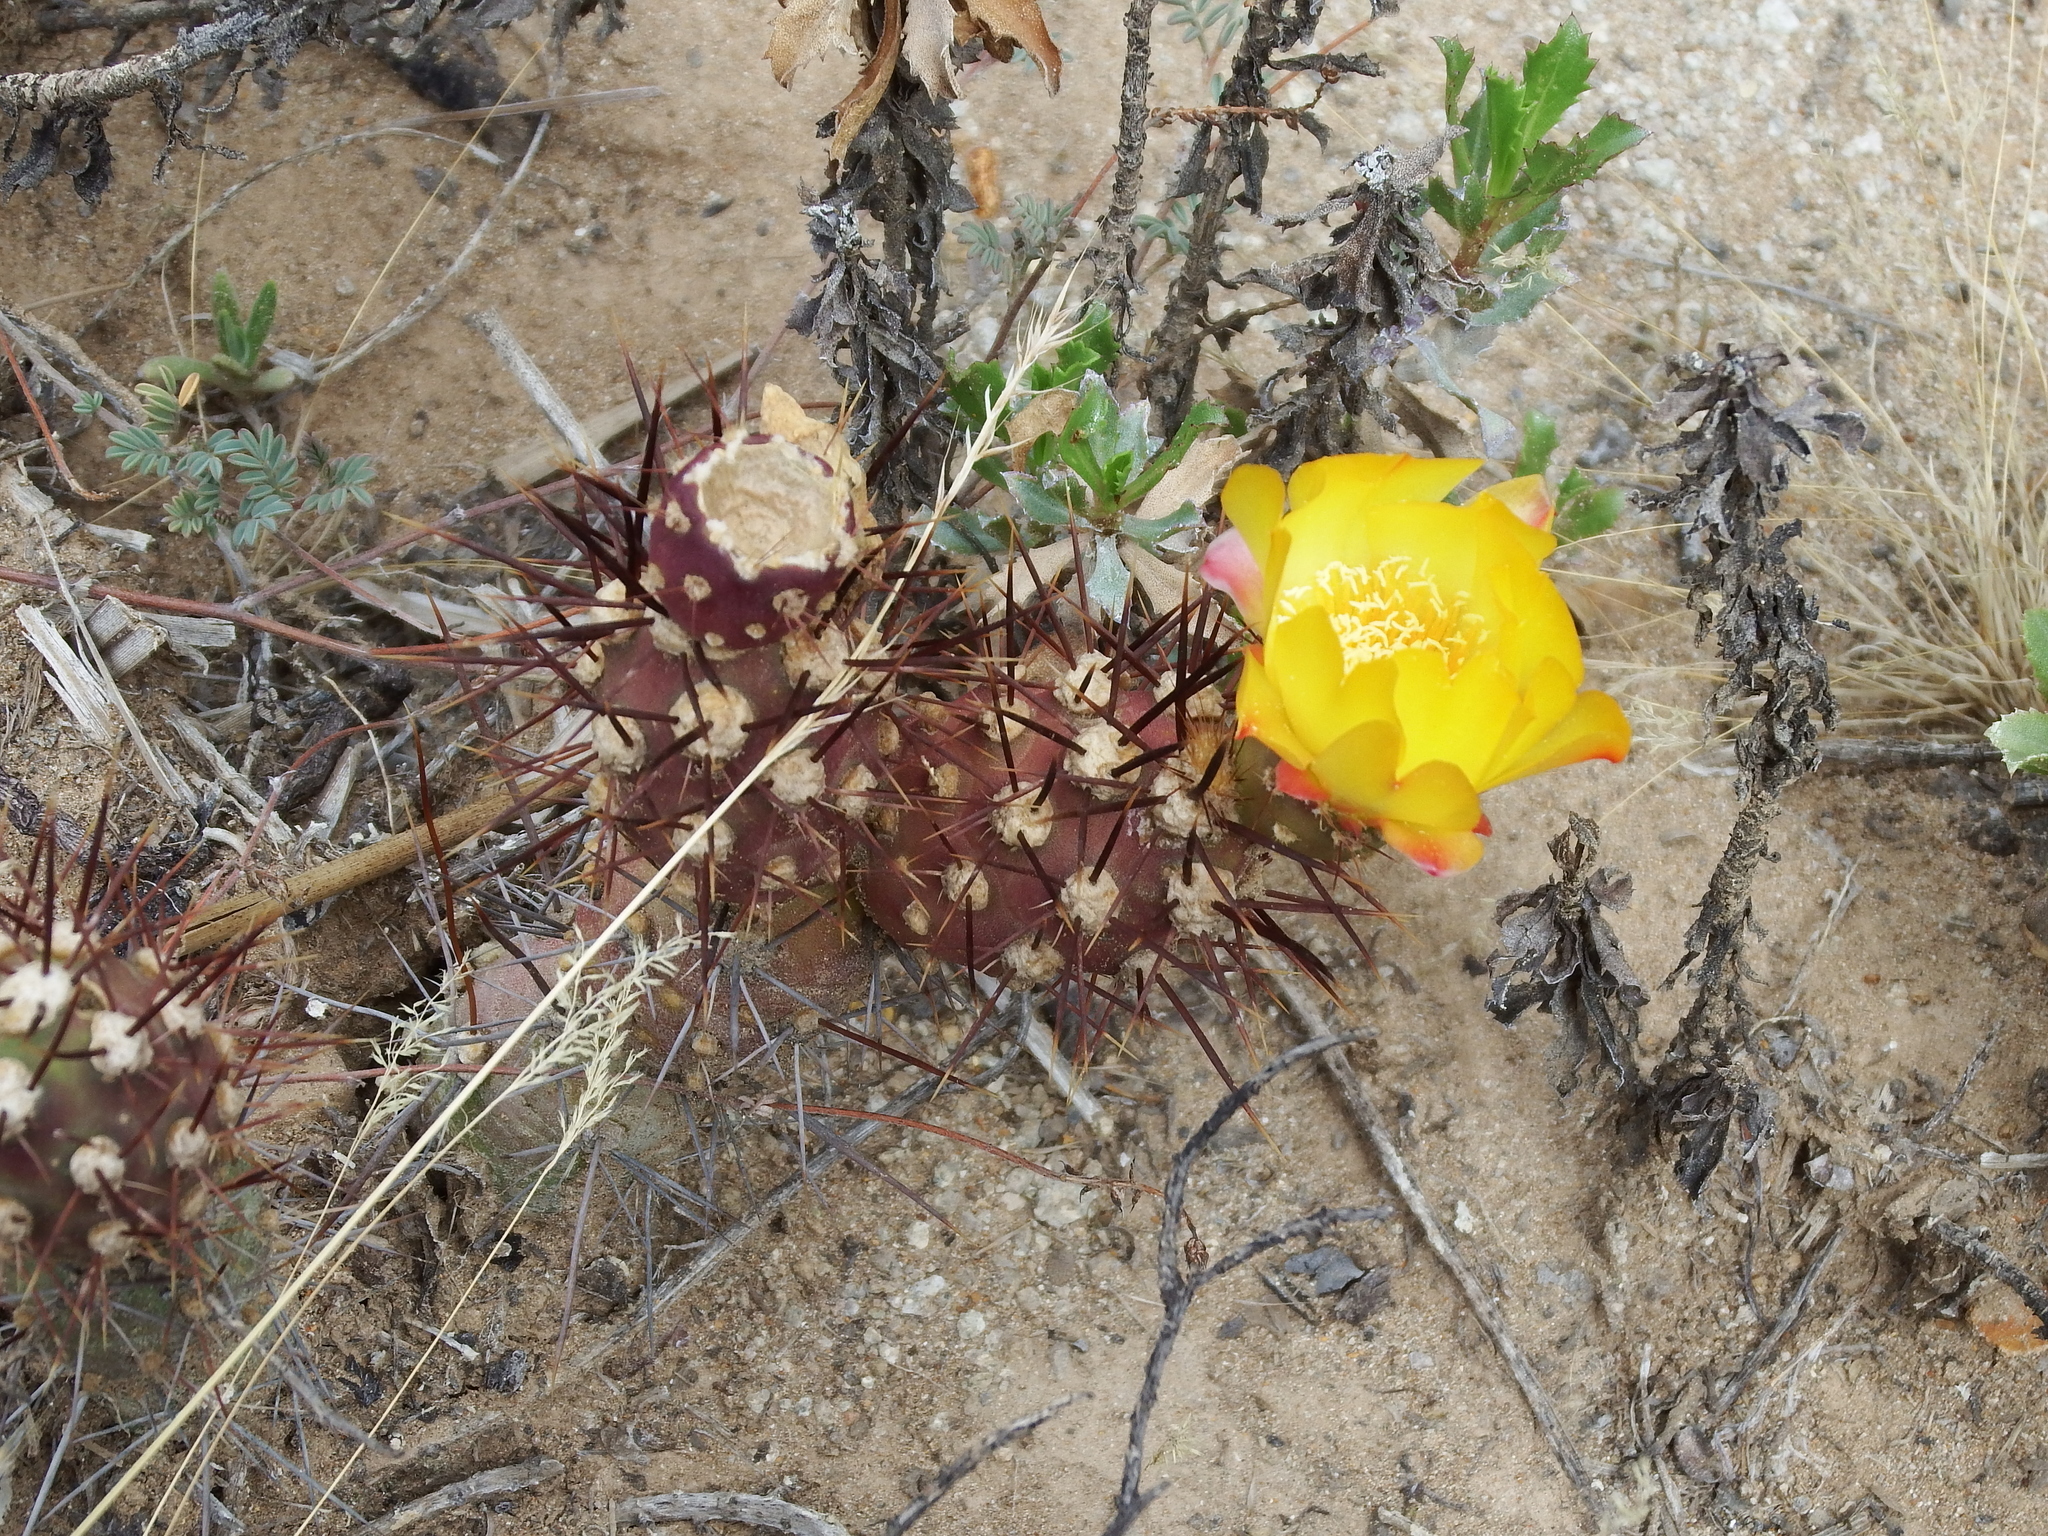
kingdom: Plantae
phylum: Tracheophyta
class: Magnoliopsida
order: Caryophyllales
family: Cactaceae
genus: Cumulopuntia
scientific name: Cumulopuntia leucophaea
